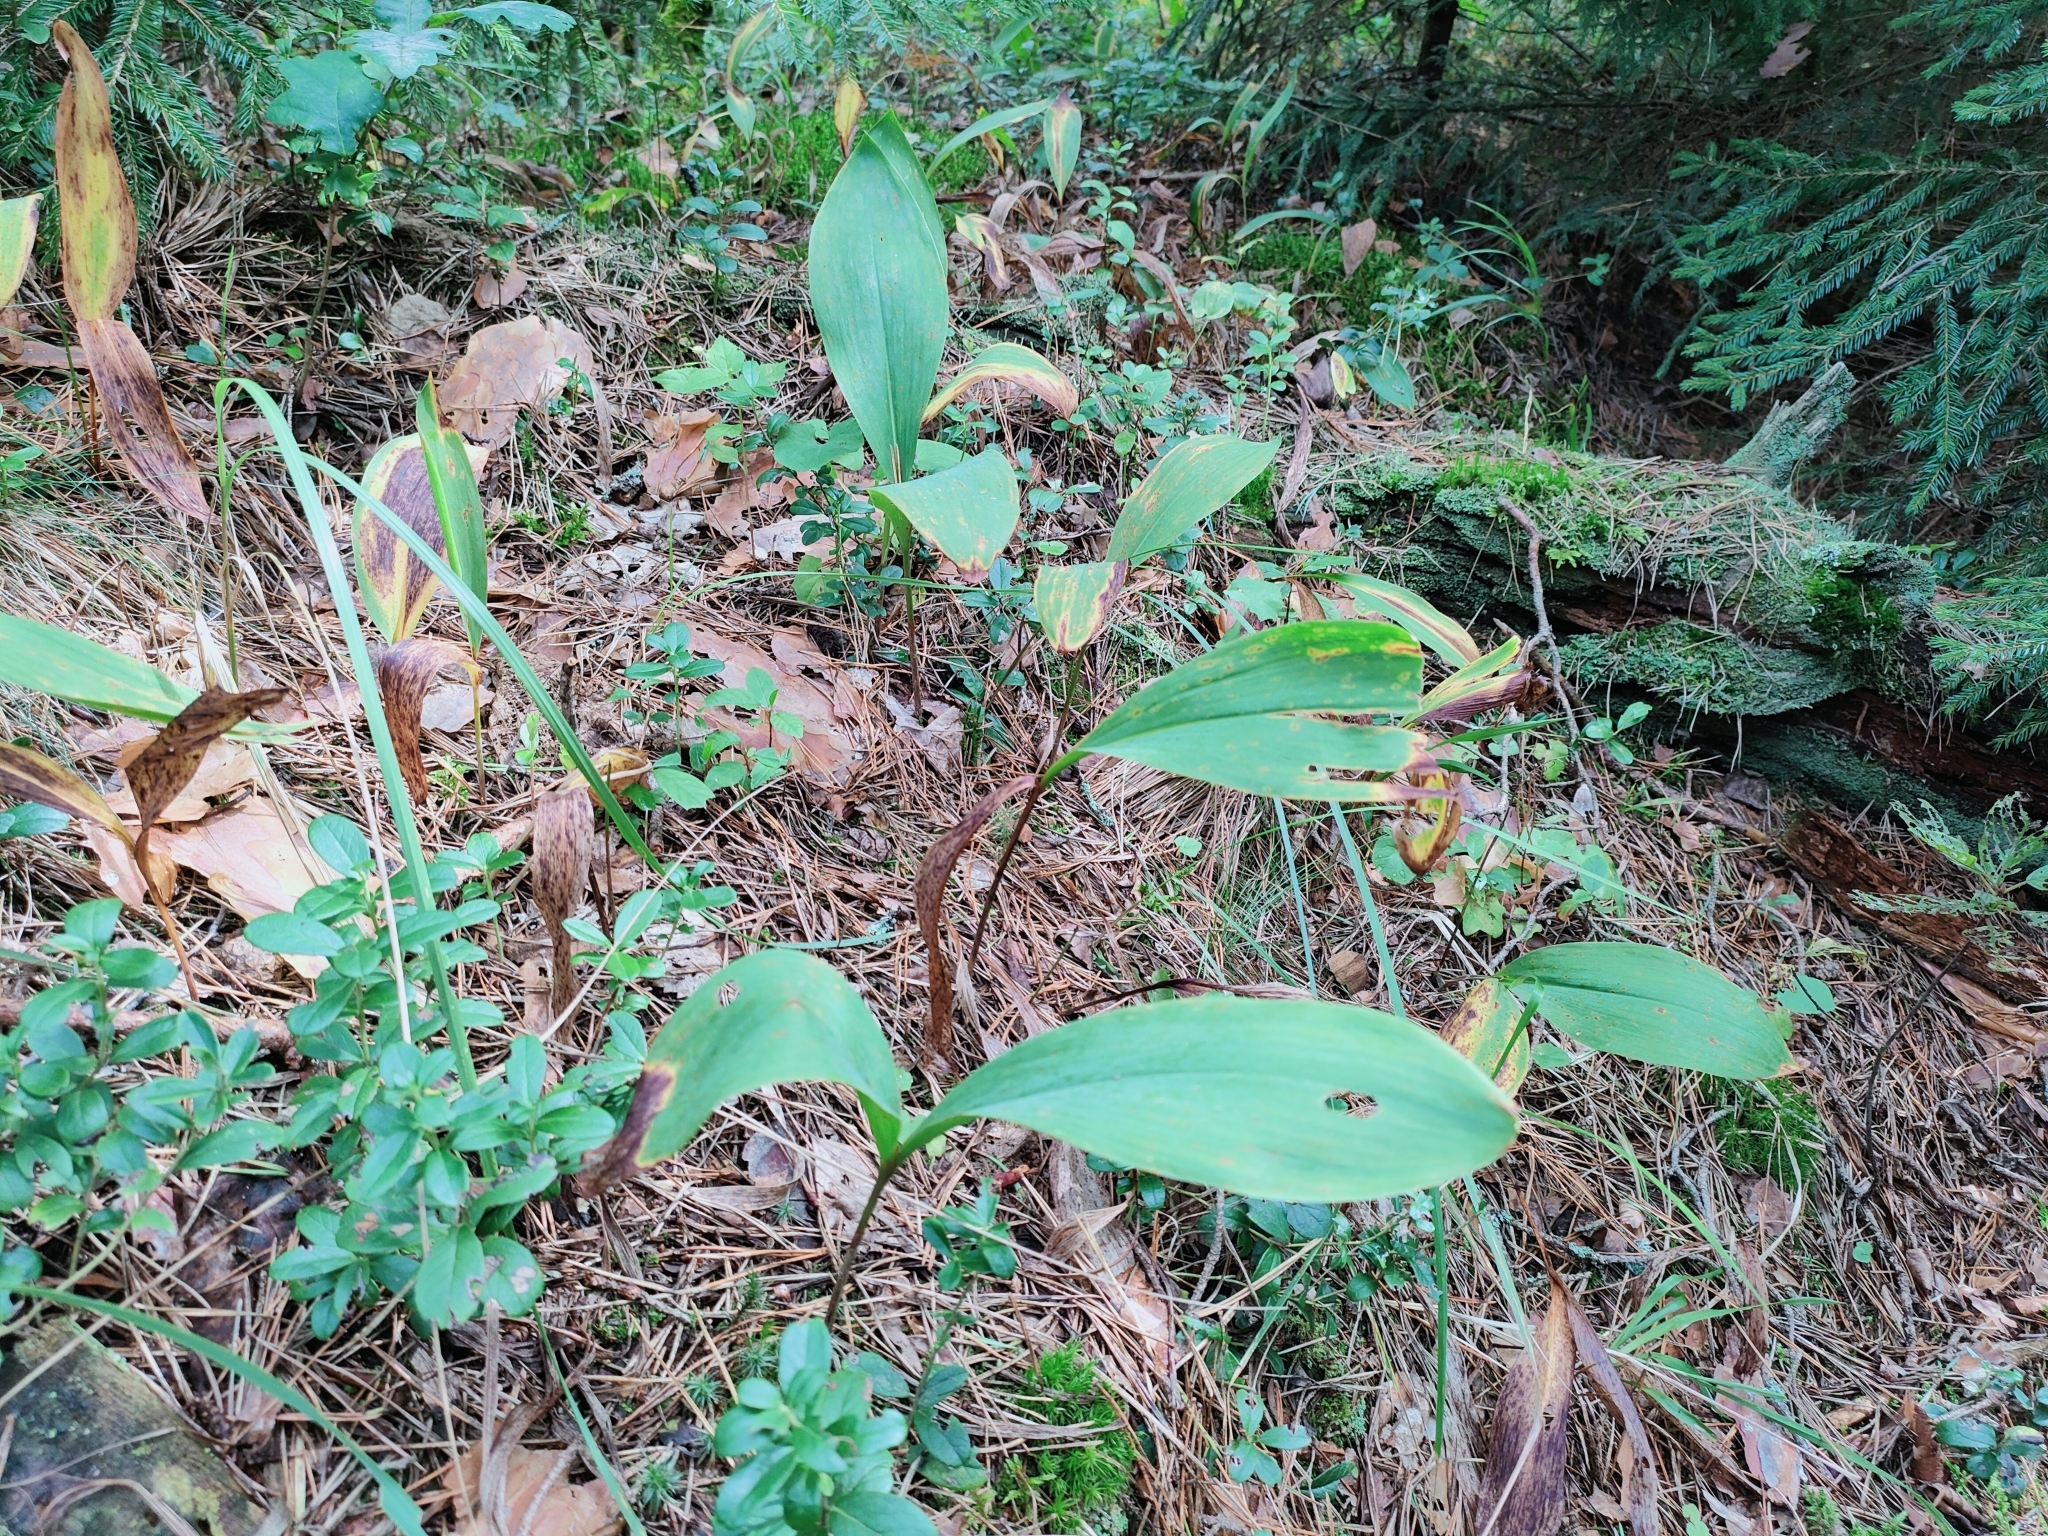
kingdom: Plantae
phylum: Tracheophyta
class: Liliopsida
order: Asparagales
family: Asparagaceae
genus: Convallaria
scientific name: Convallaria majalis
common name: Lily-of-the-valley
